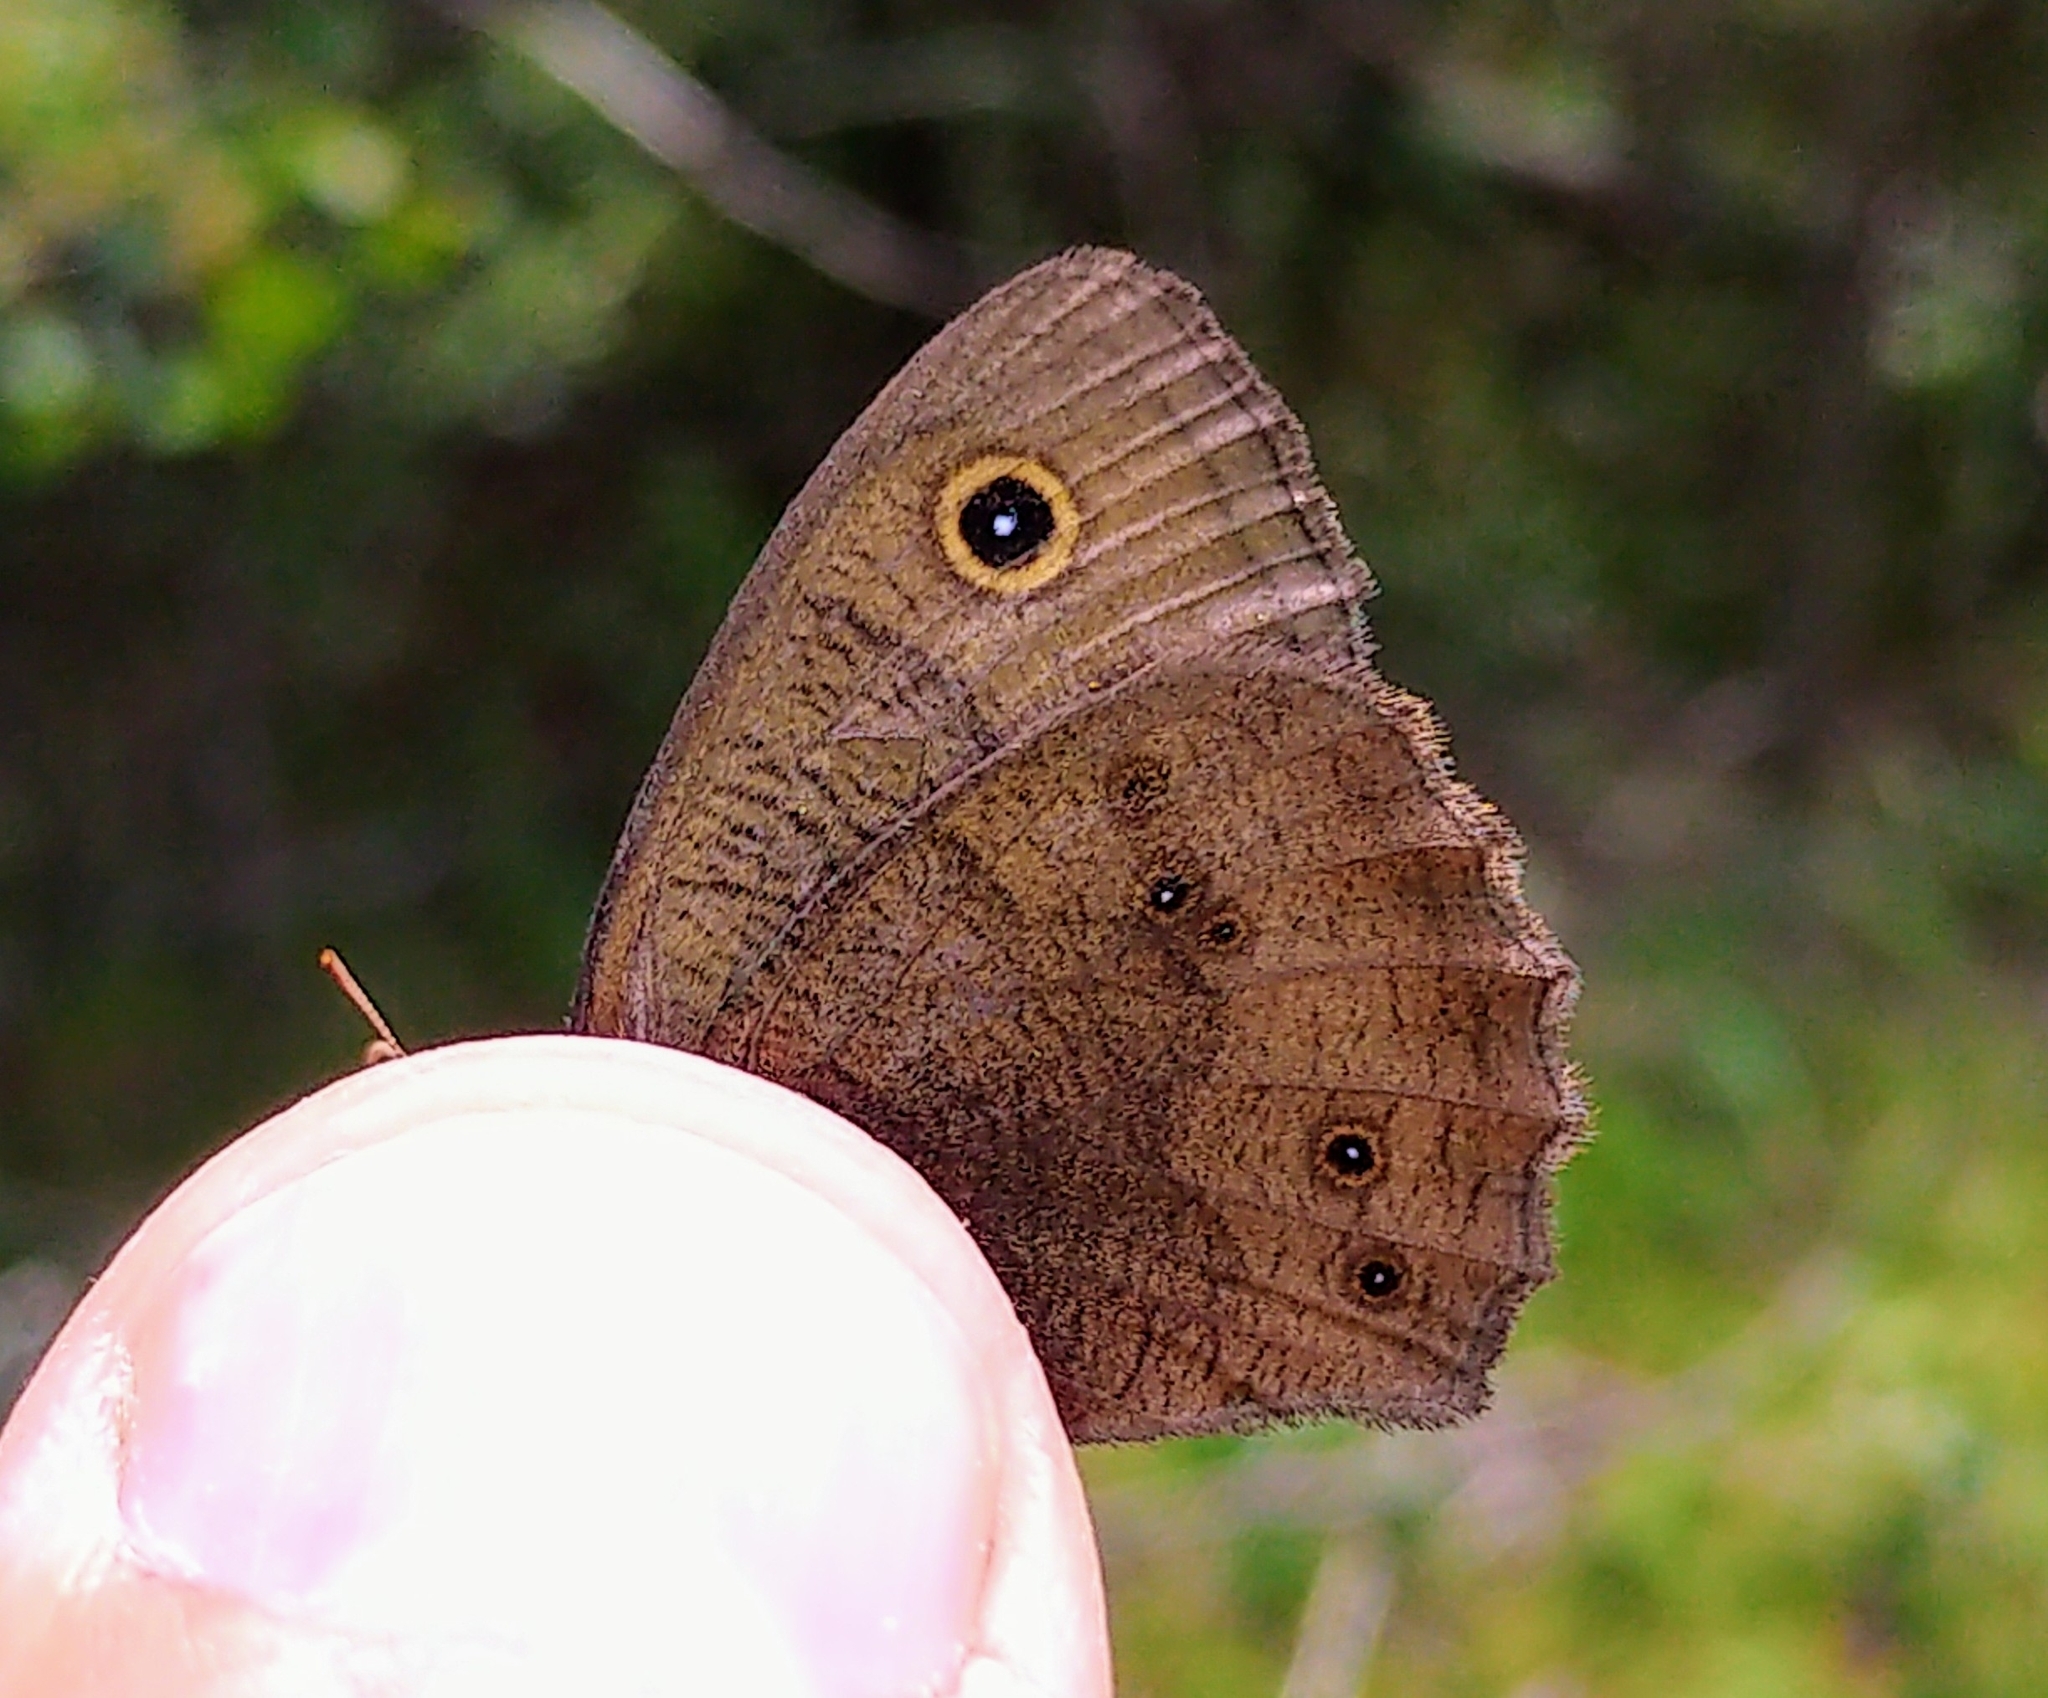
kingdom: Animalia
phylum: Arthropoda
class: Insecta
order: Lepidoptera
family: Nymphalidae
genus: Cercyonis
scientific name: Cercyonis pegala
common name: Common wood-nymph
